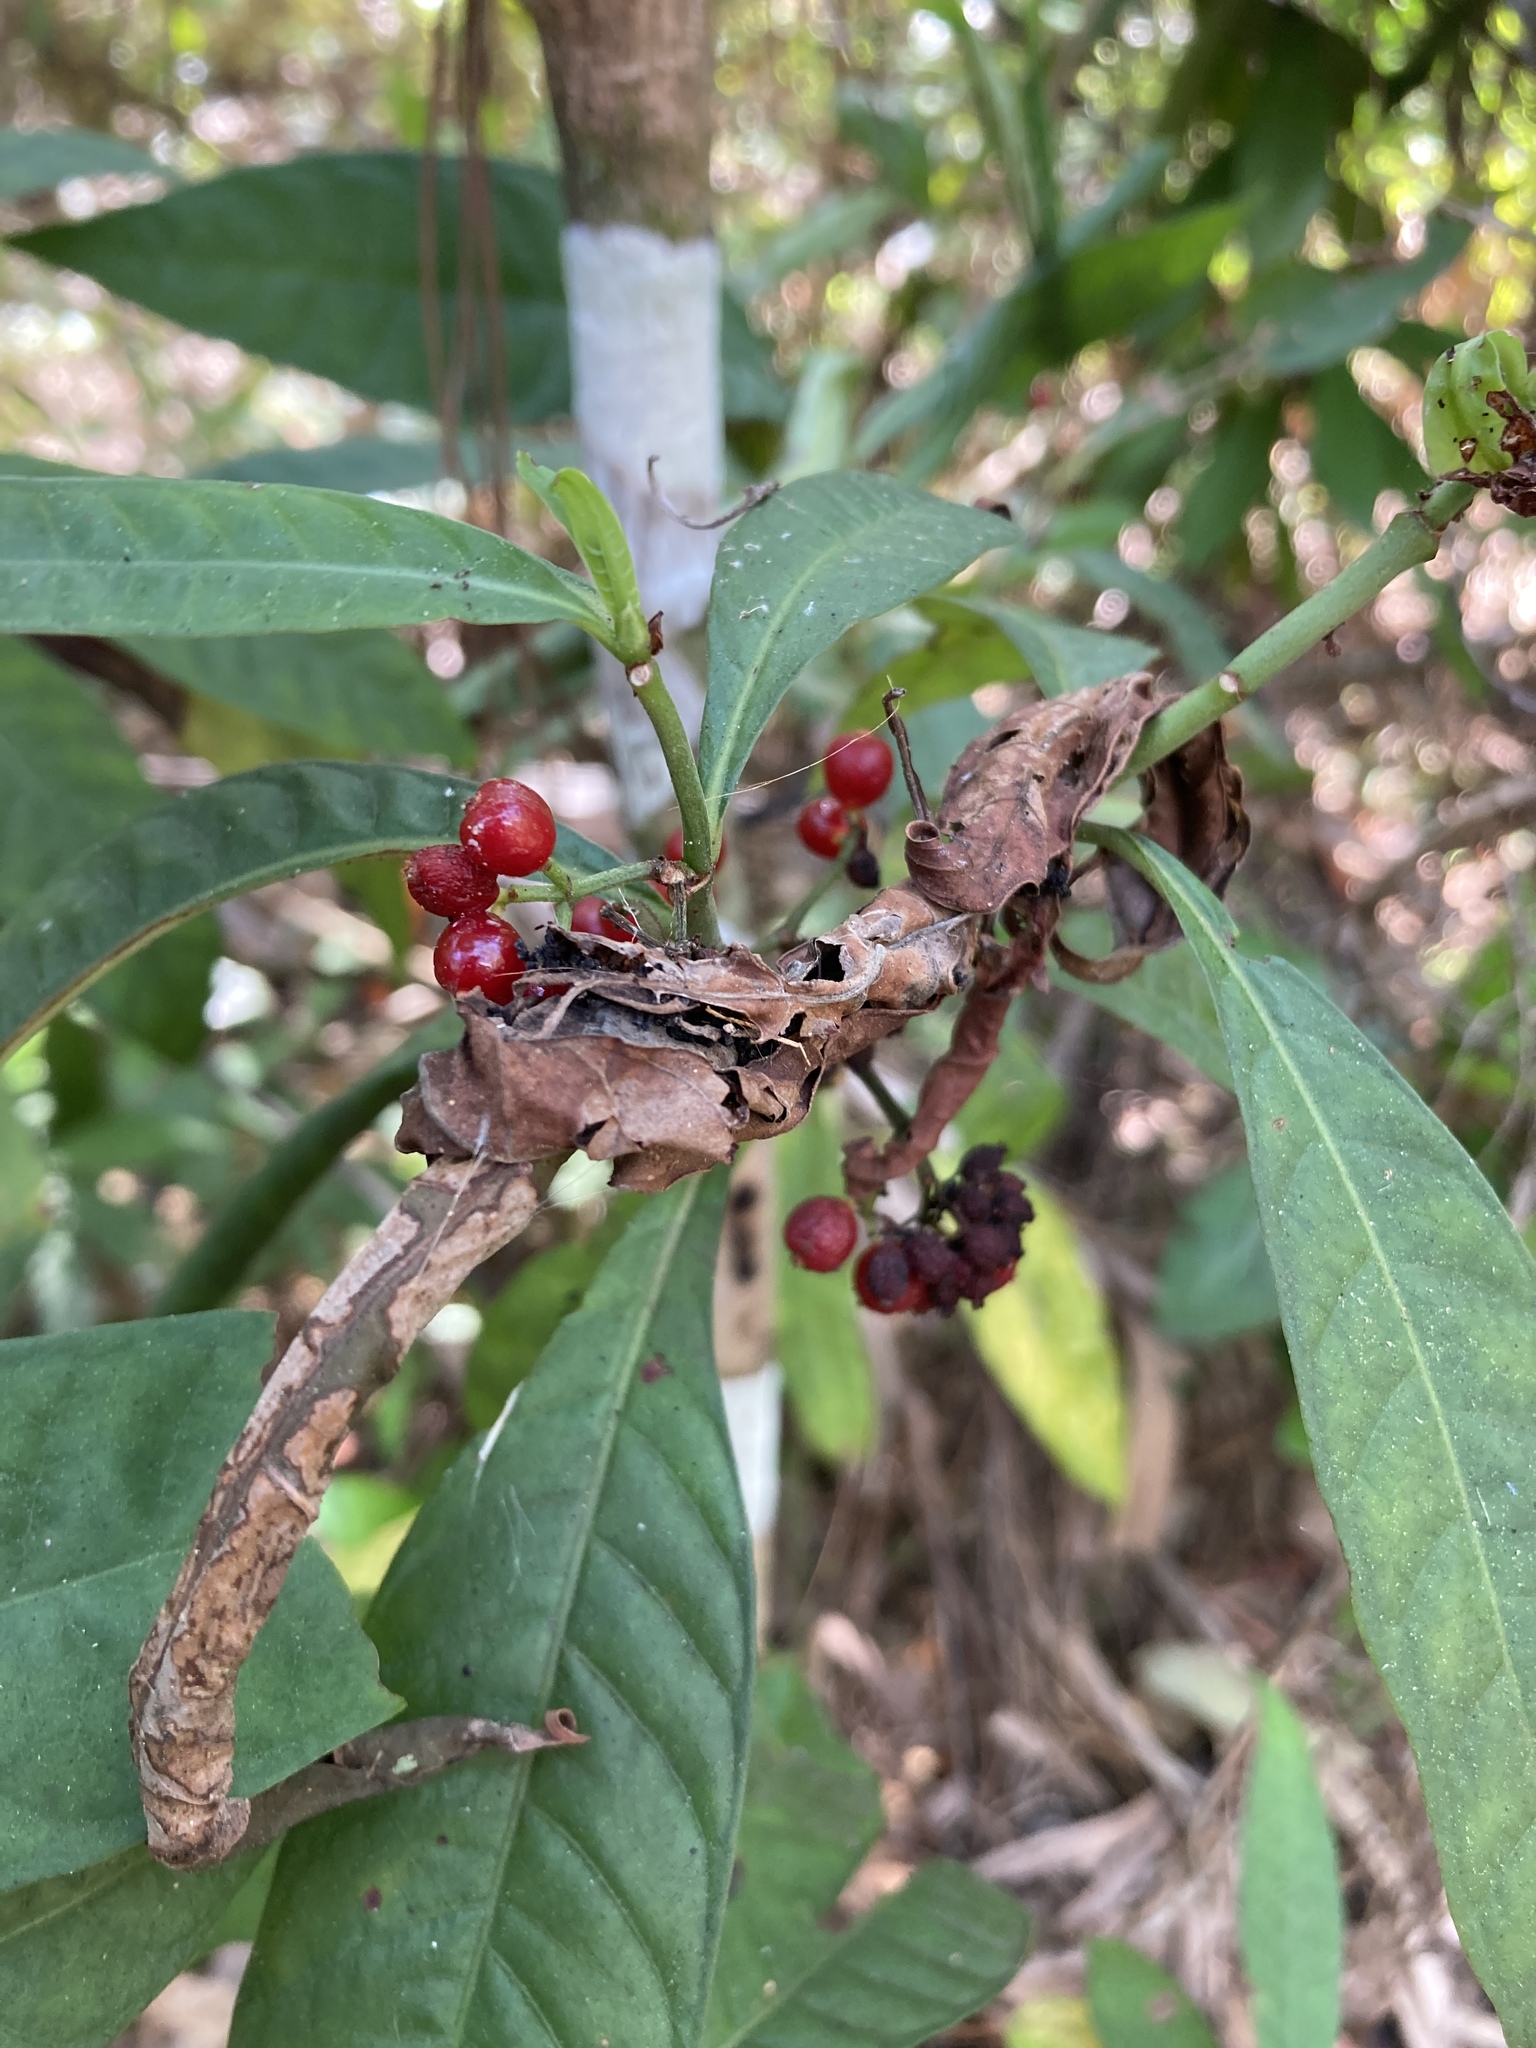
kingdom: Plantae
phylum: Tracheophyta
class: Magnoliopsida
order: Gentianales
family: Rubiaceae
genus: Psychotria
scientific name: Psychotria tenuifolia
